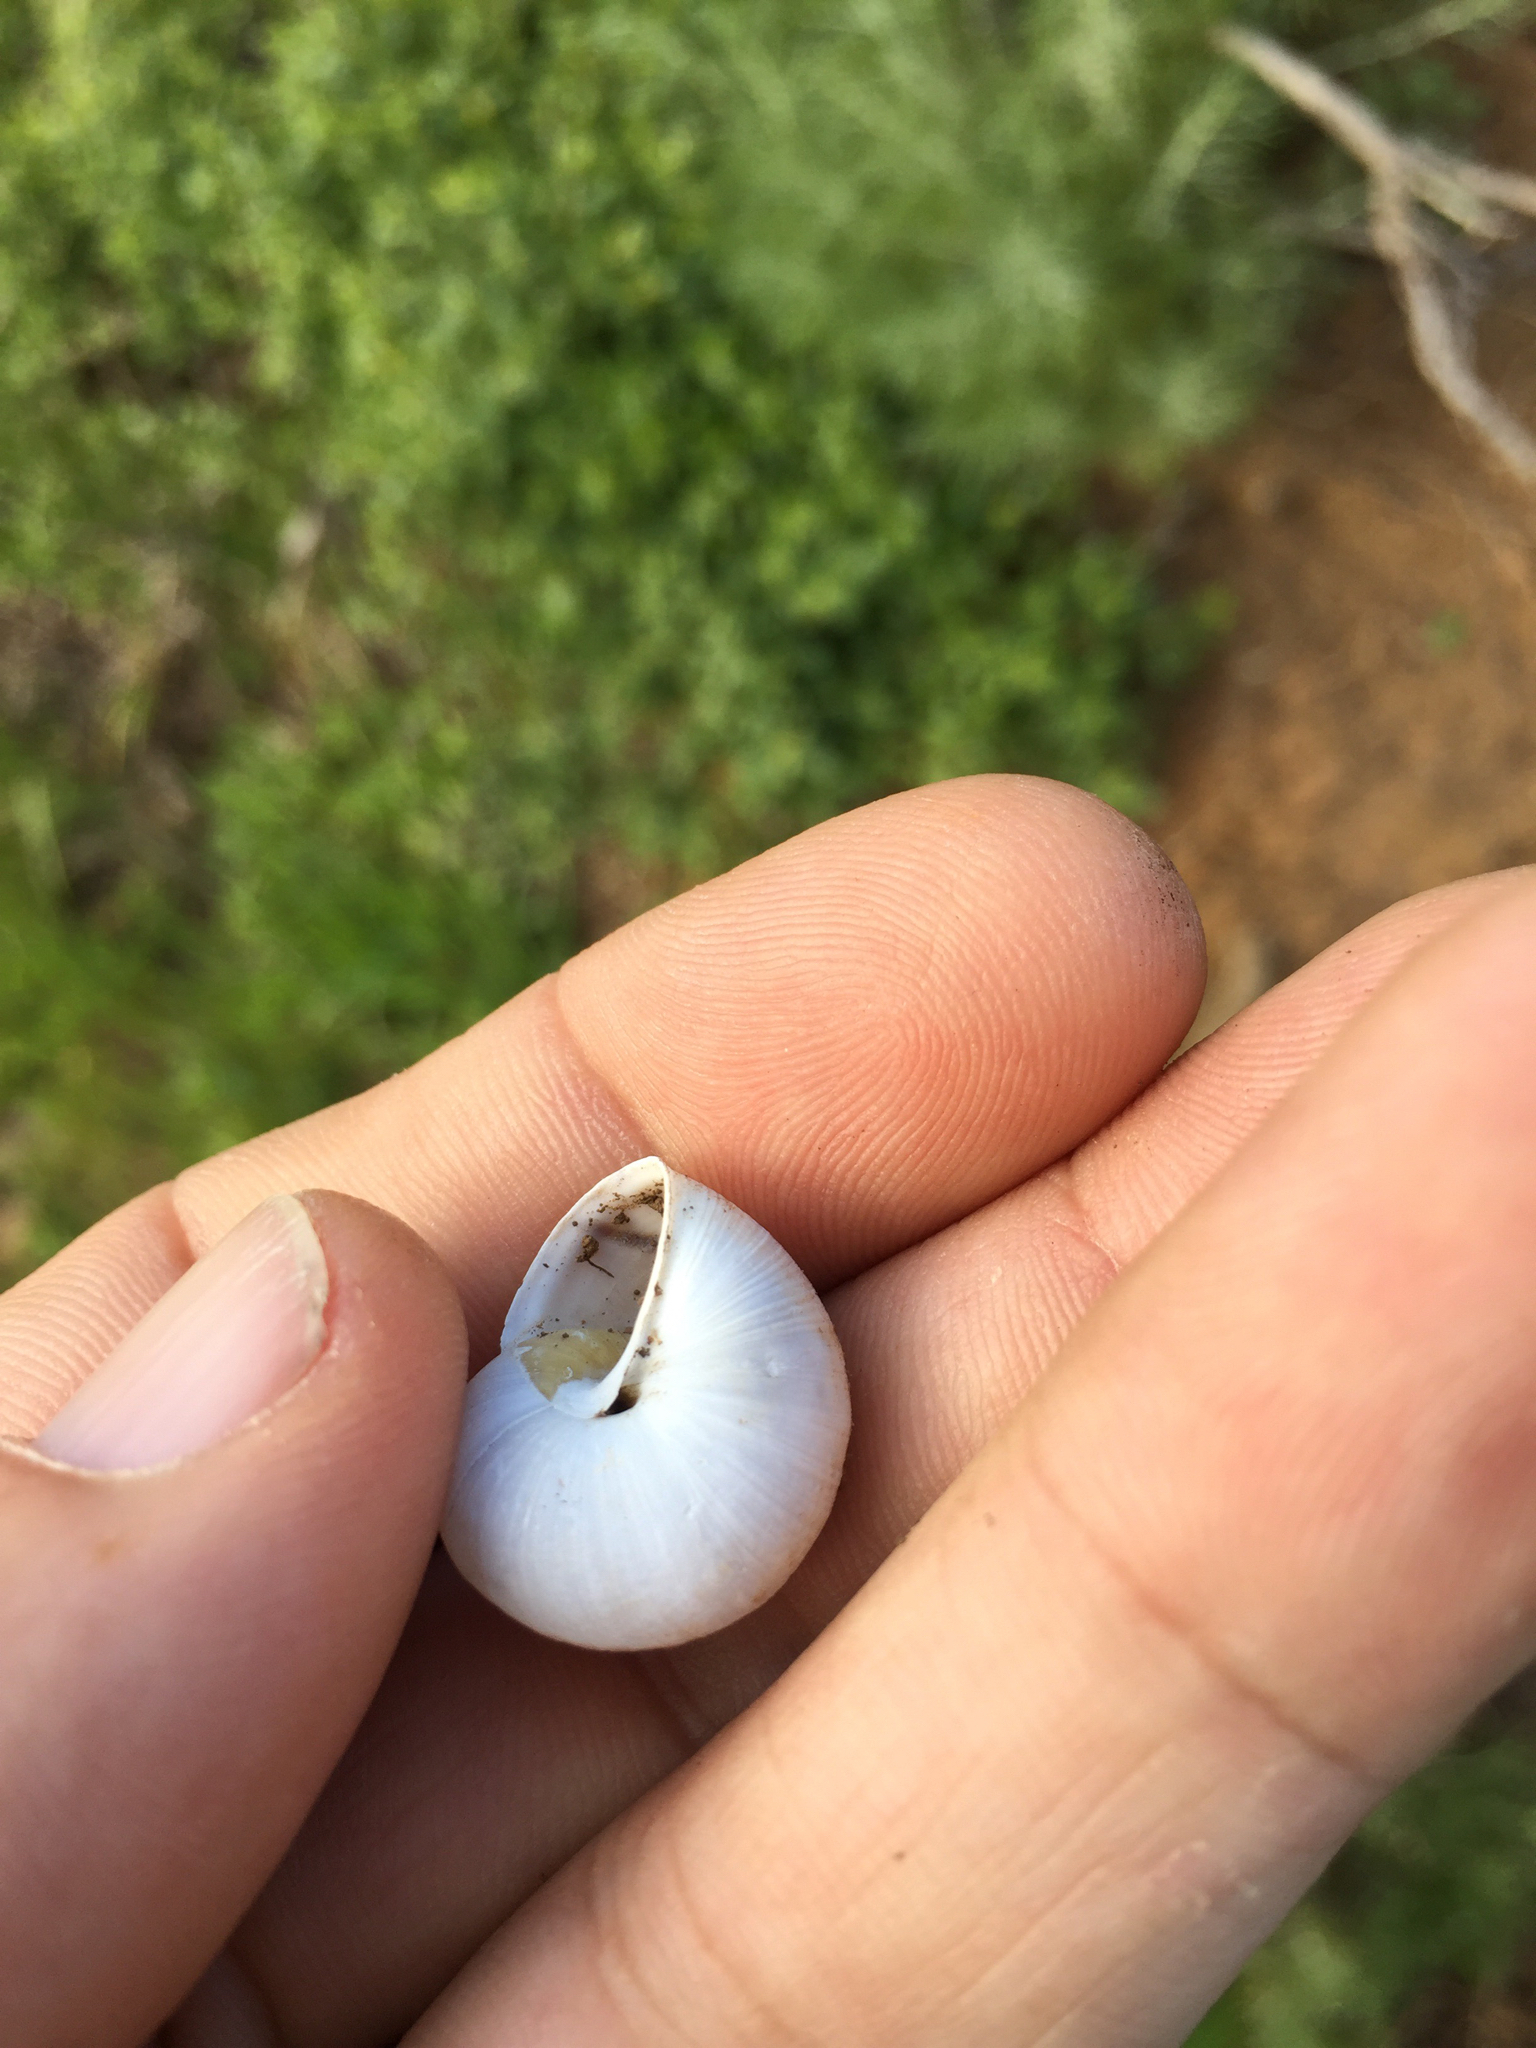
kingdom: Animalia
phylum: Mollusca
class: Gastropoda
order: Stylommatophora
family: Xanthonychidae
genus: Helminthoglypta
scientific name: Helminthoglypta nickliniana
